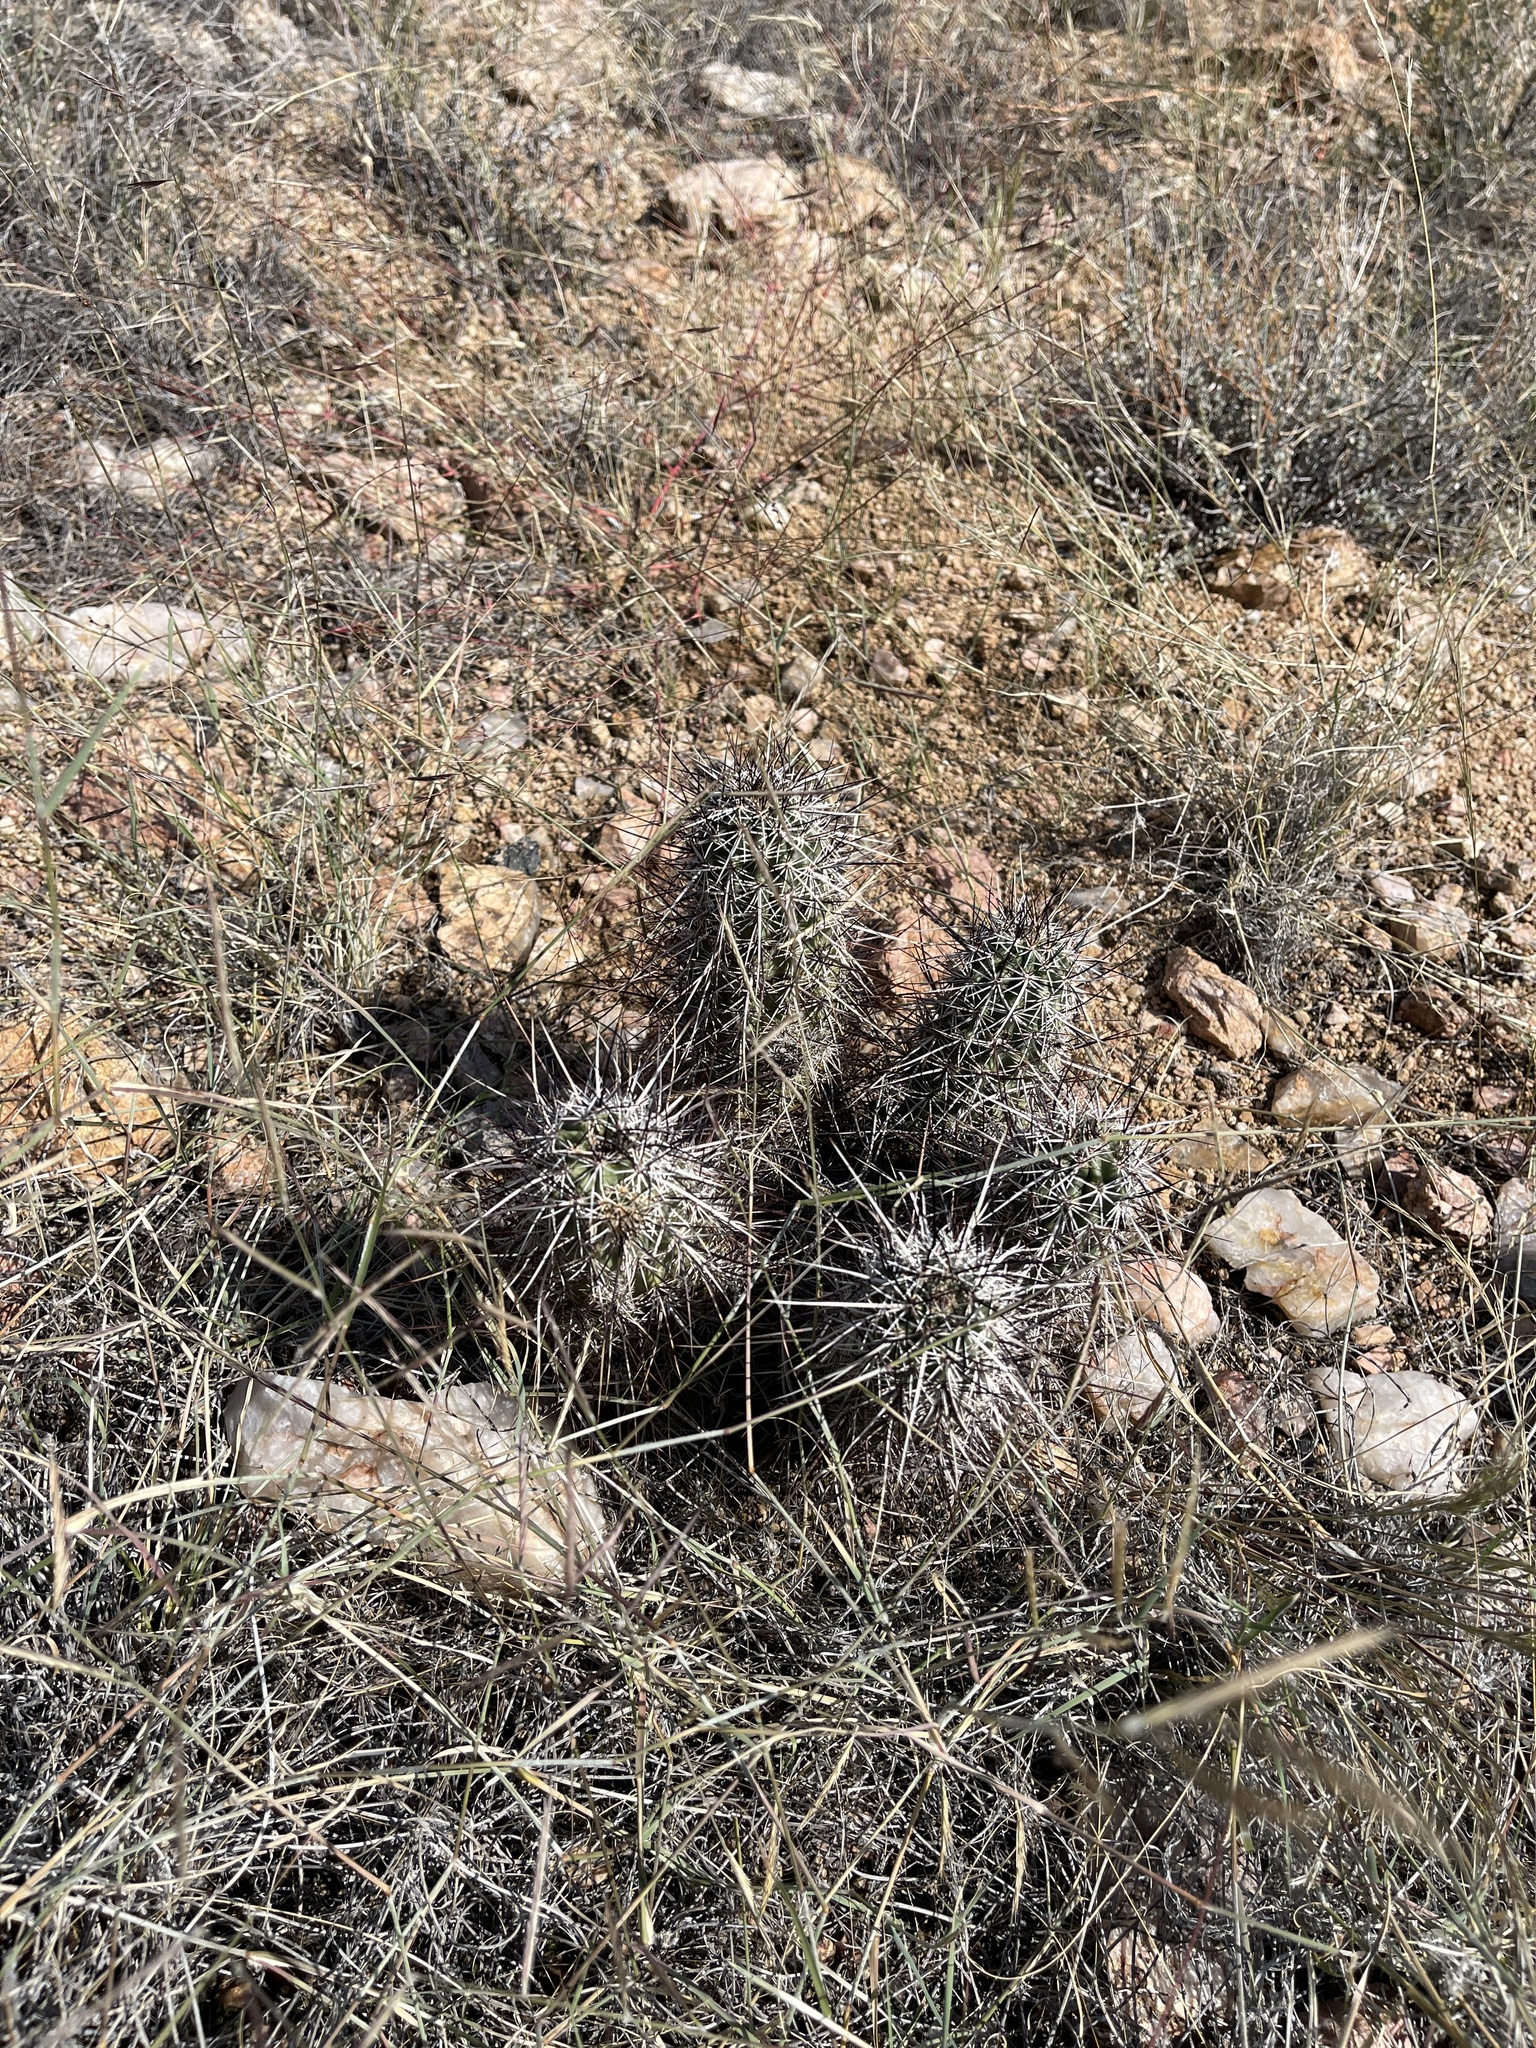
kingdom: Plantae
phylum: Tracheophyta
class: Magnoliopsida
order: Caryophyllales
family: Cactaceae
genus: Echinocereus
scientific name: Echinocereus engelmannii
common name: Engelmann's hedgehog cactus
